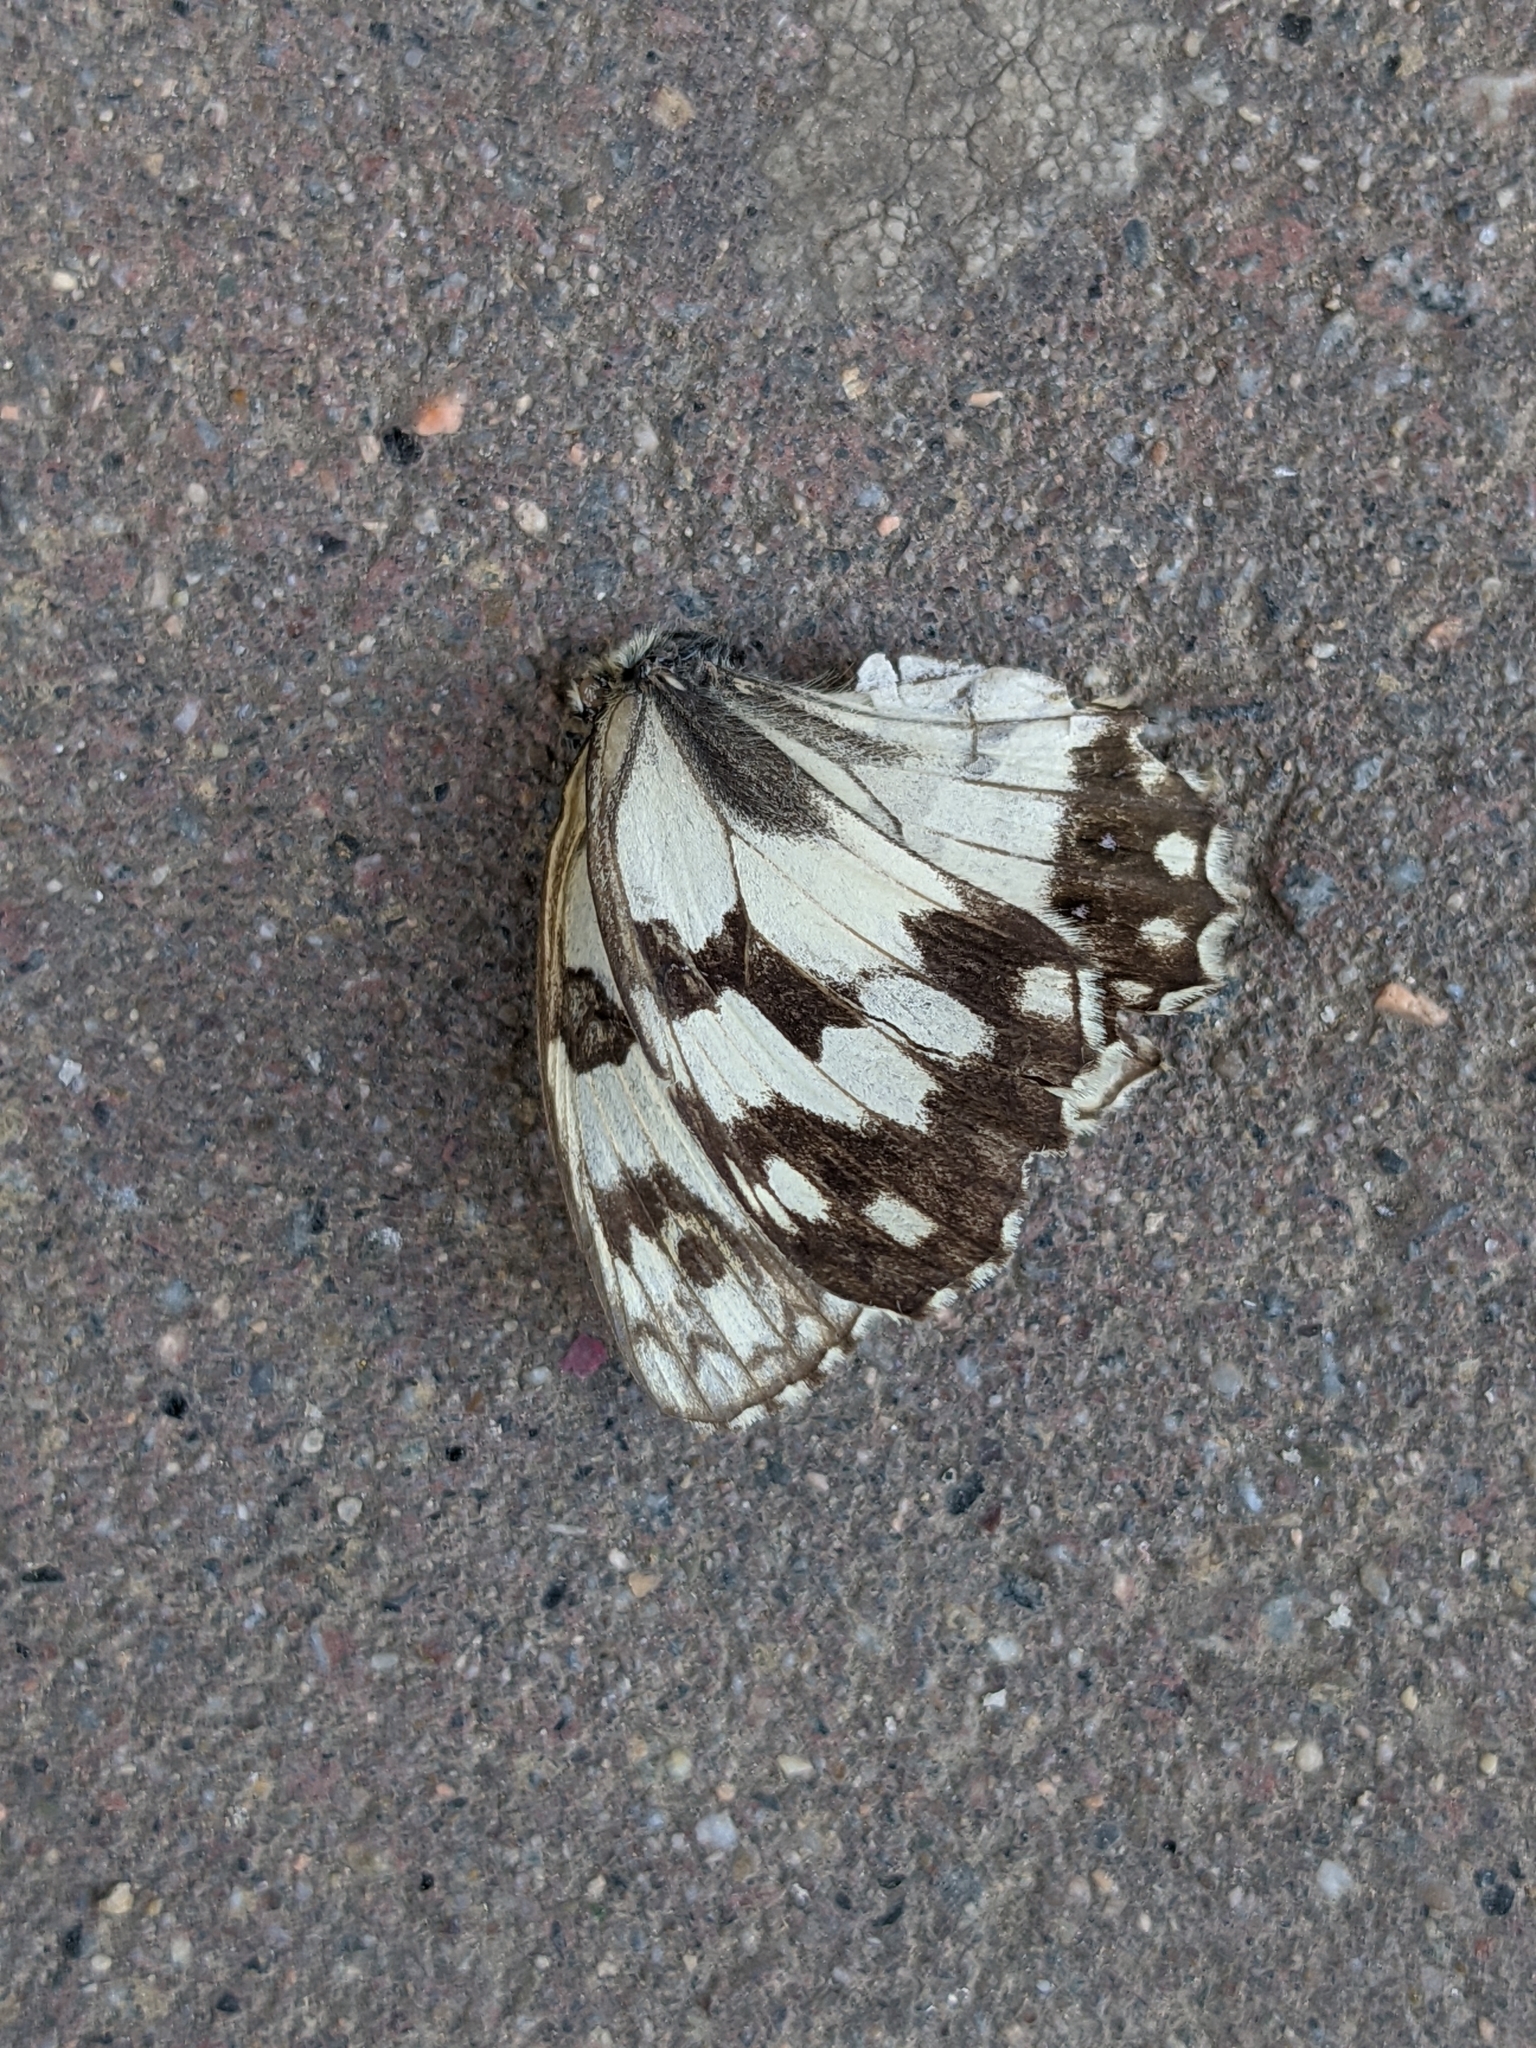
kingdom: Animalia
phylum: Arthropoda
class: Insecta
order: Lepidoptera
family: Nymphalidae
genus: Melanargia
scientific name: Melanargia lachesis
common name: Iberian marbled white
